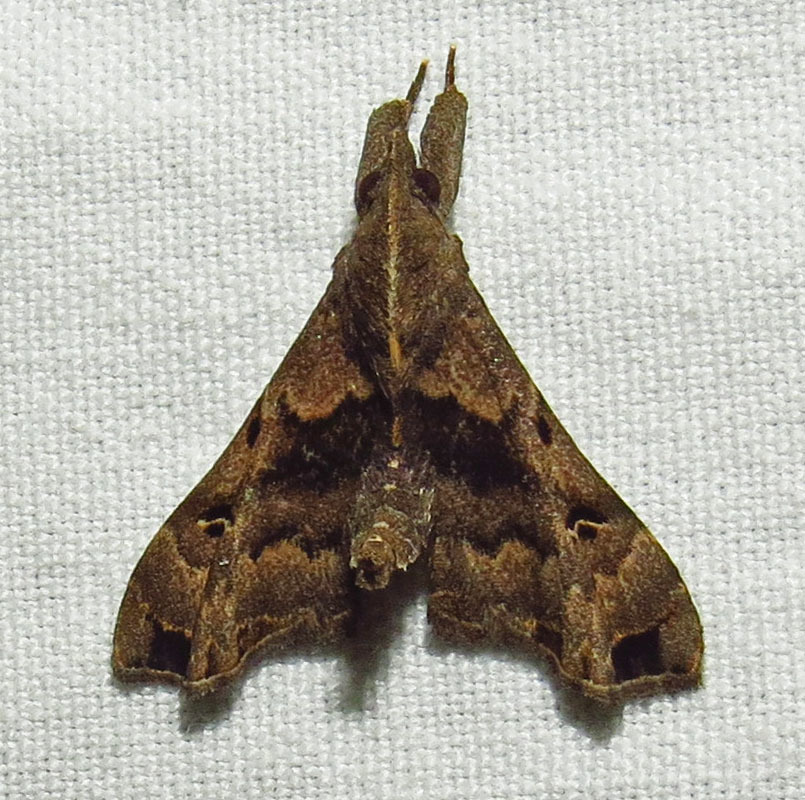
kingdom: Animalia
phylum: Arthropoda
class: Insecta
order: Lepidoptera
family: Erebidae
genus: Palthis
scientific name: Palthis asopialis
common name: Faint-spotted palthis moth
